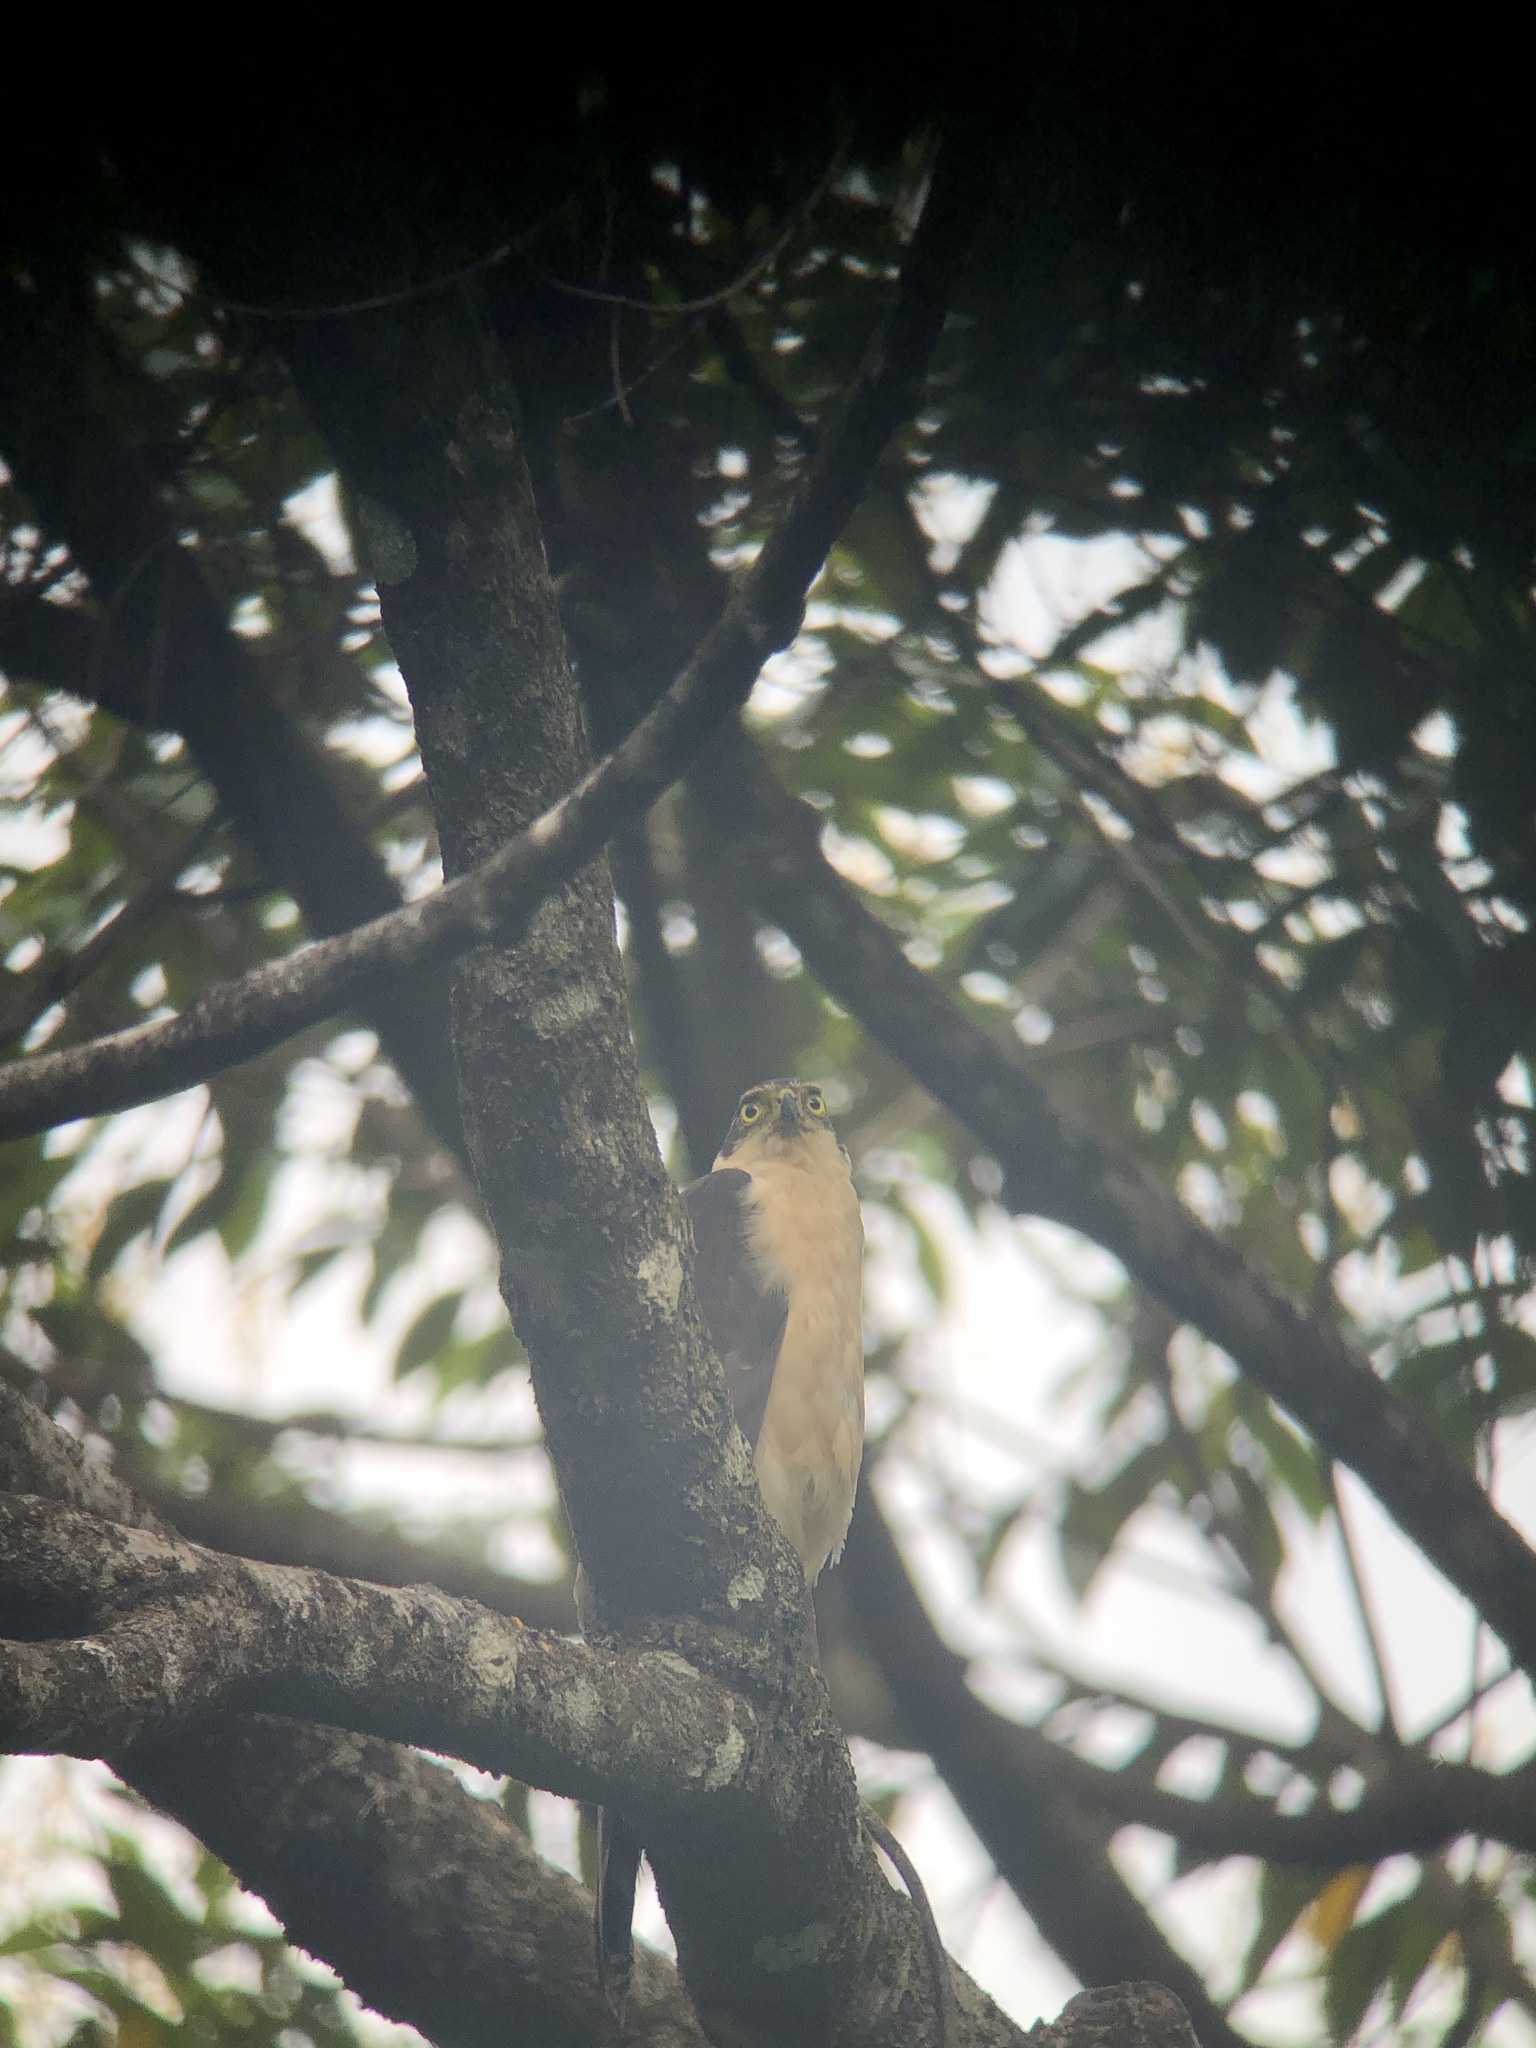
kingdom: Animalia
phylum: Chordata
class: Aves
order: Accipitriformes
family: Accipitridae
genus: Accipiter
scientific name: Accipiter bicolor
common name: Bicolored hawk
